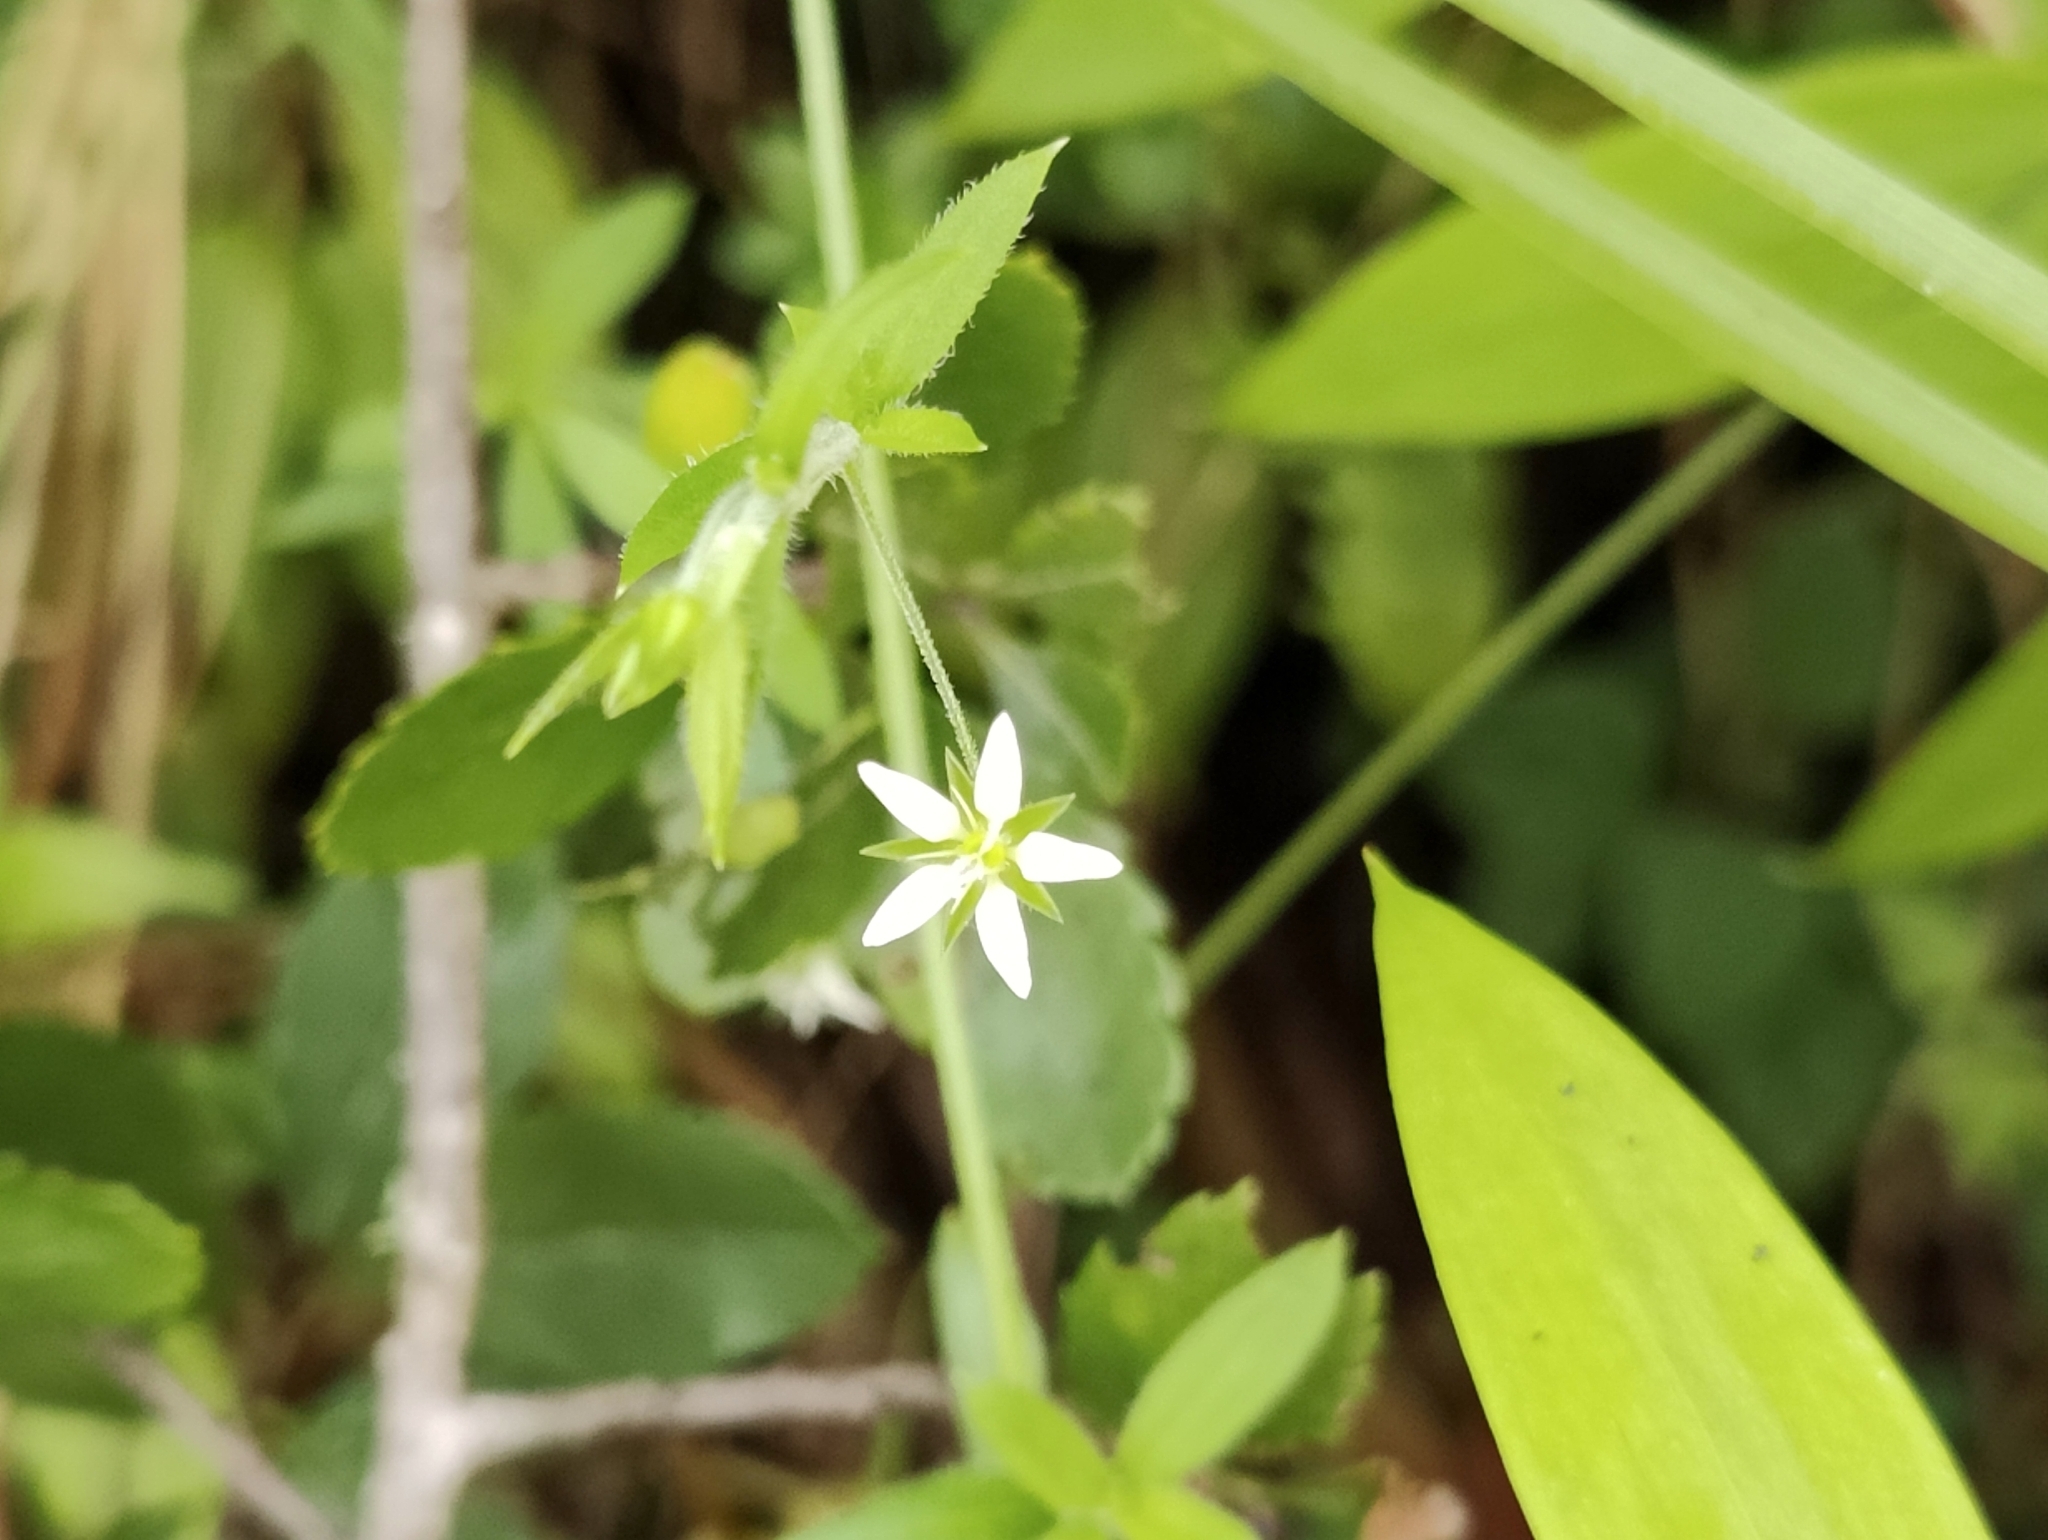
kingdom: Plantae
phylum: Tracheophyta
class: Magnoliopsida
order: Caryophyllales
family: Caryophyllaceae
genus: Arenaria
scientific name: Arenaria lanuginosa
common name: Spread sandwort
